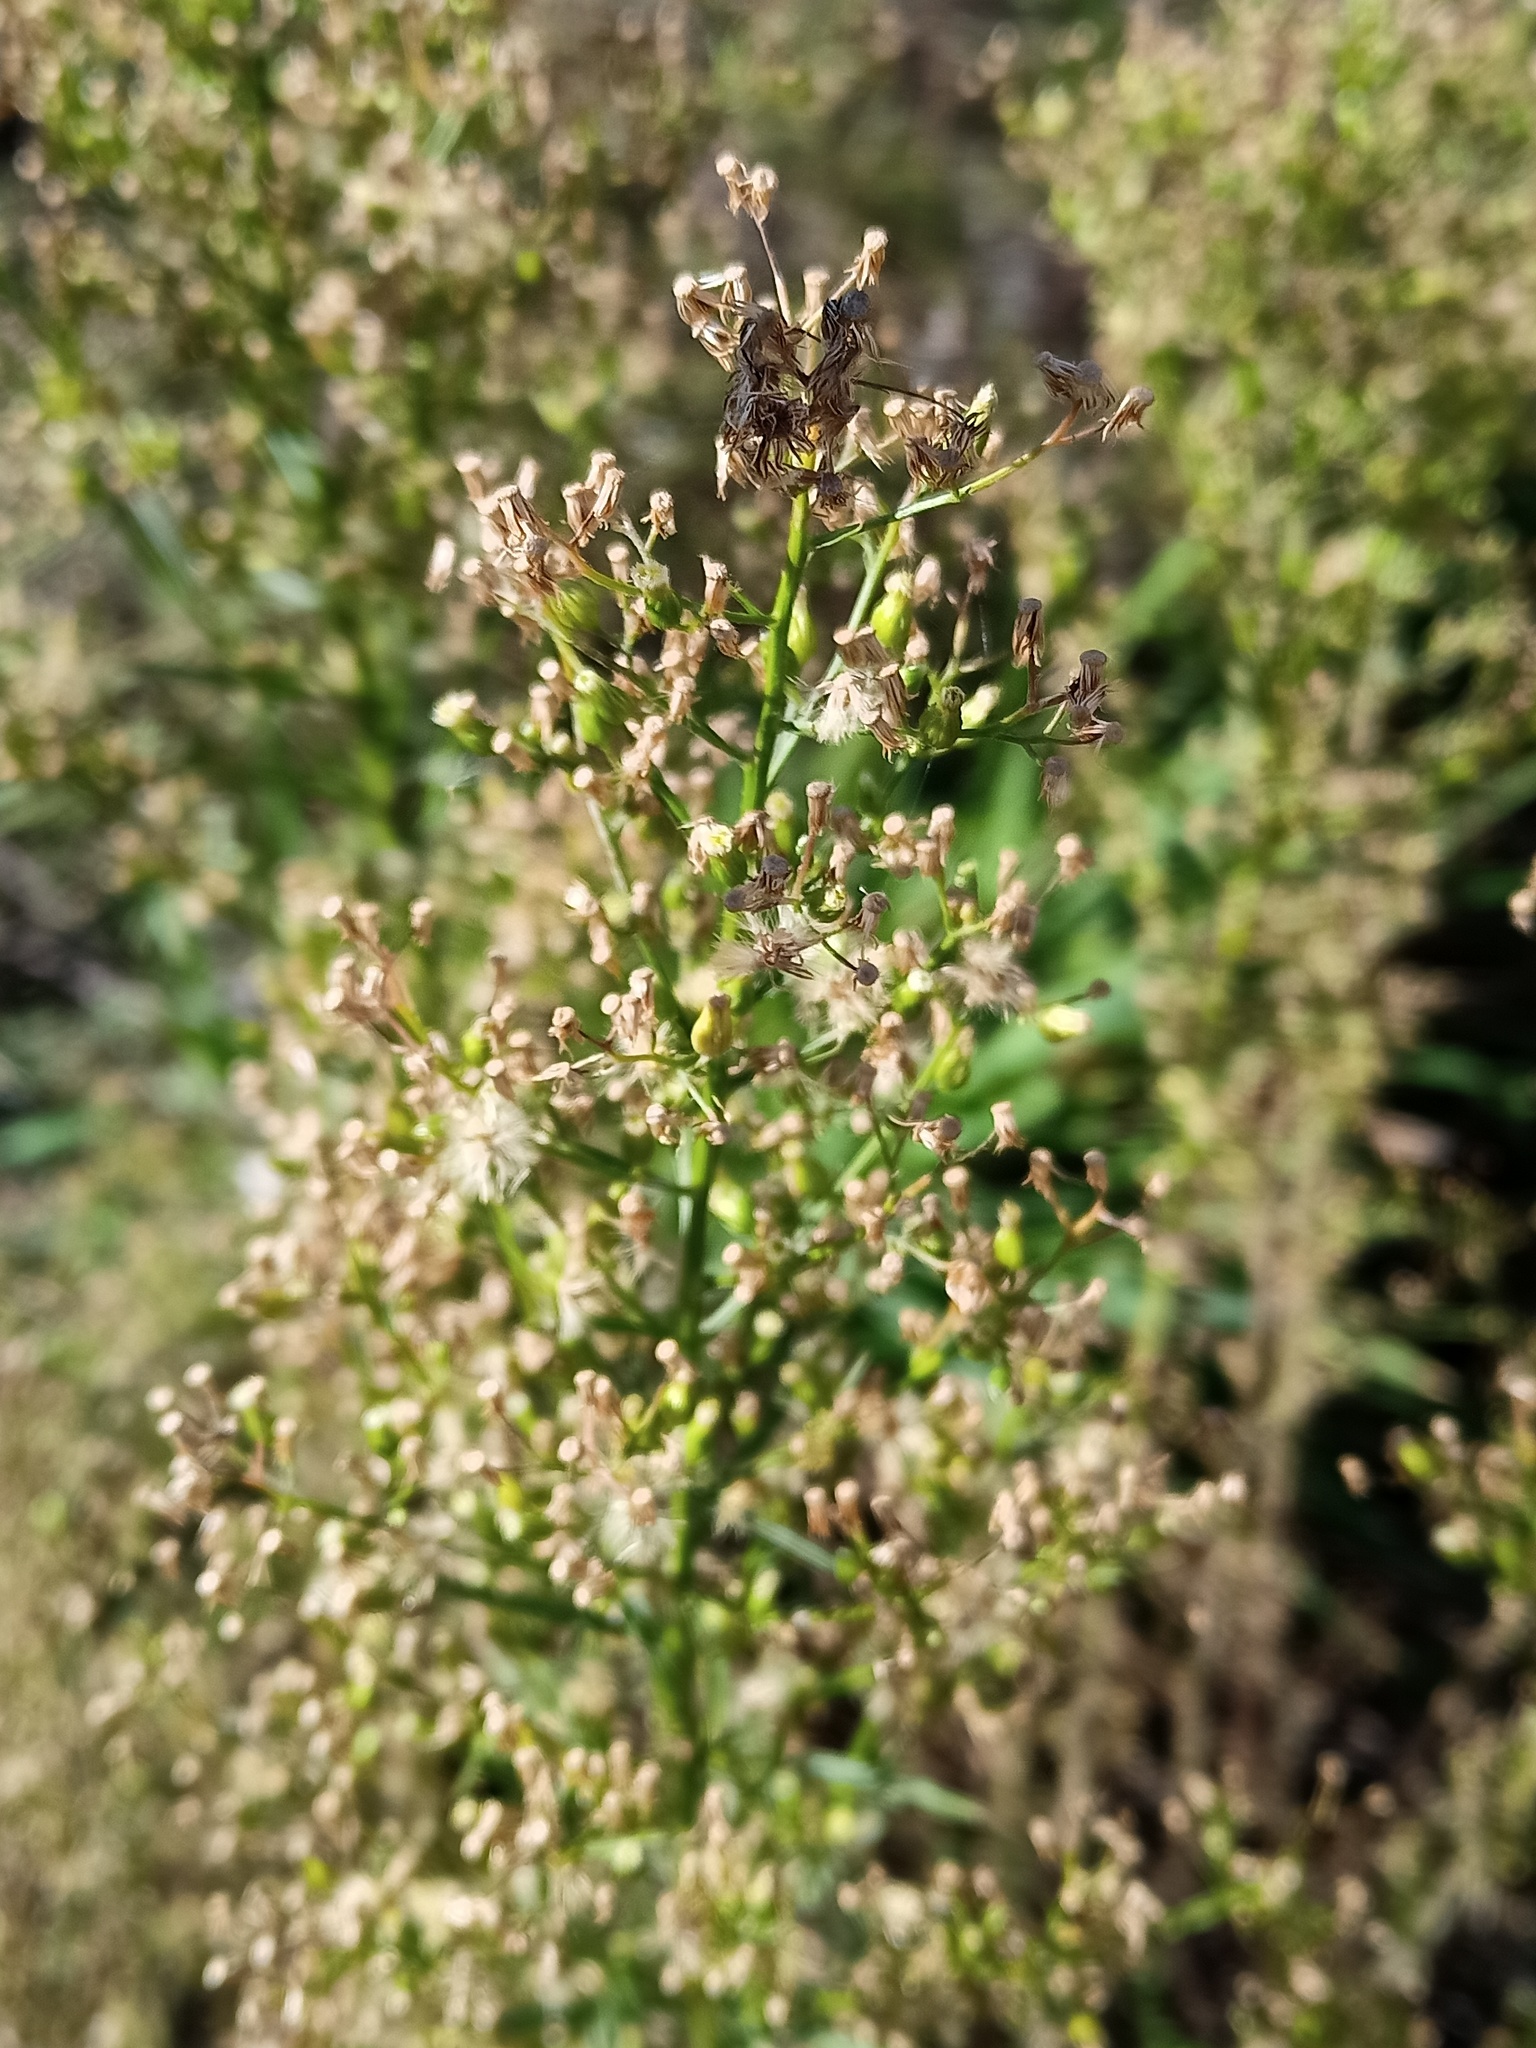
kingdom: Plantae
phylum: Tracheophyta
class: Magnoliopsida
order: Asterales
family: Asteraceae
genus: Erigeron
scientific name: Erigeron canadensis
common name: Canadian fleabane
